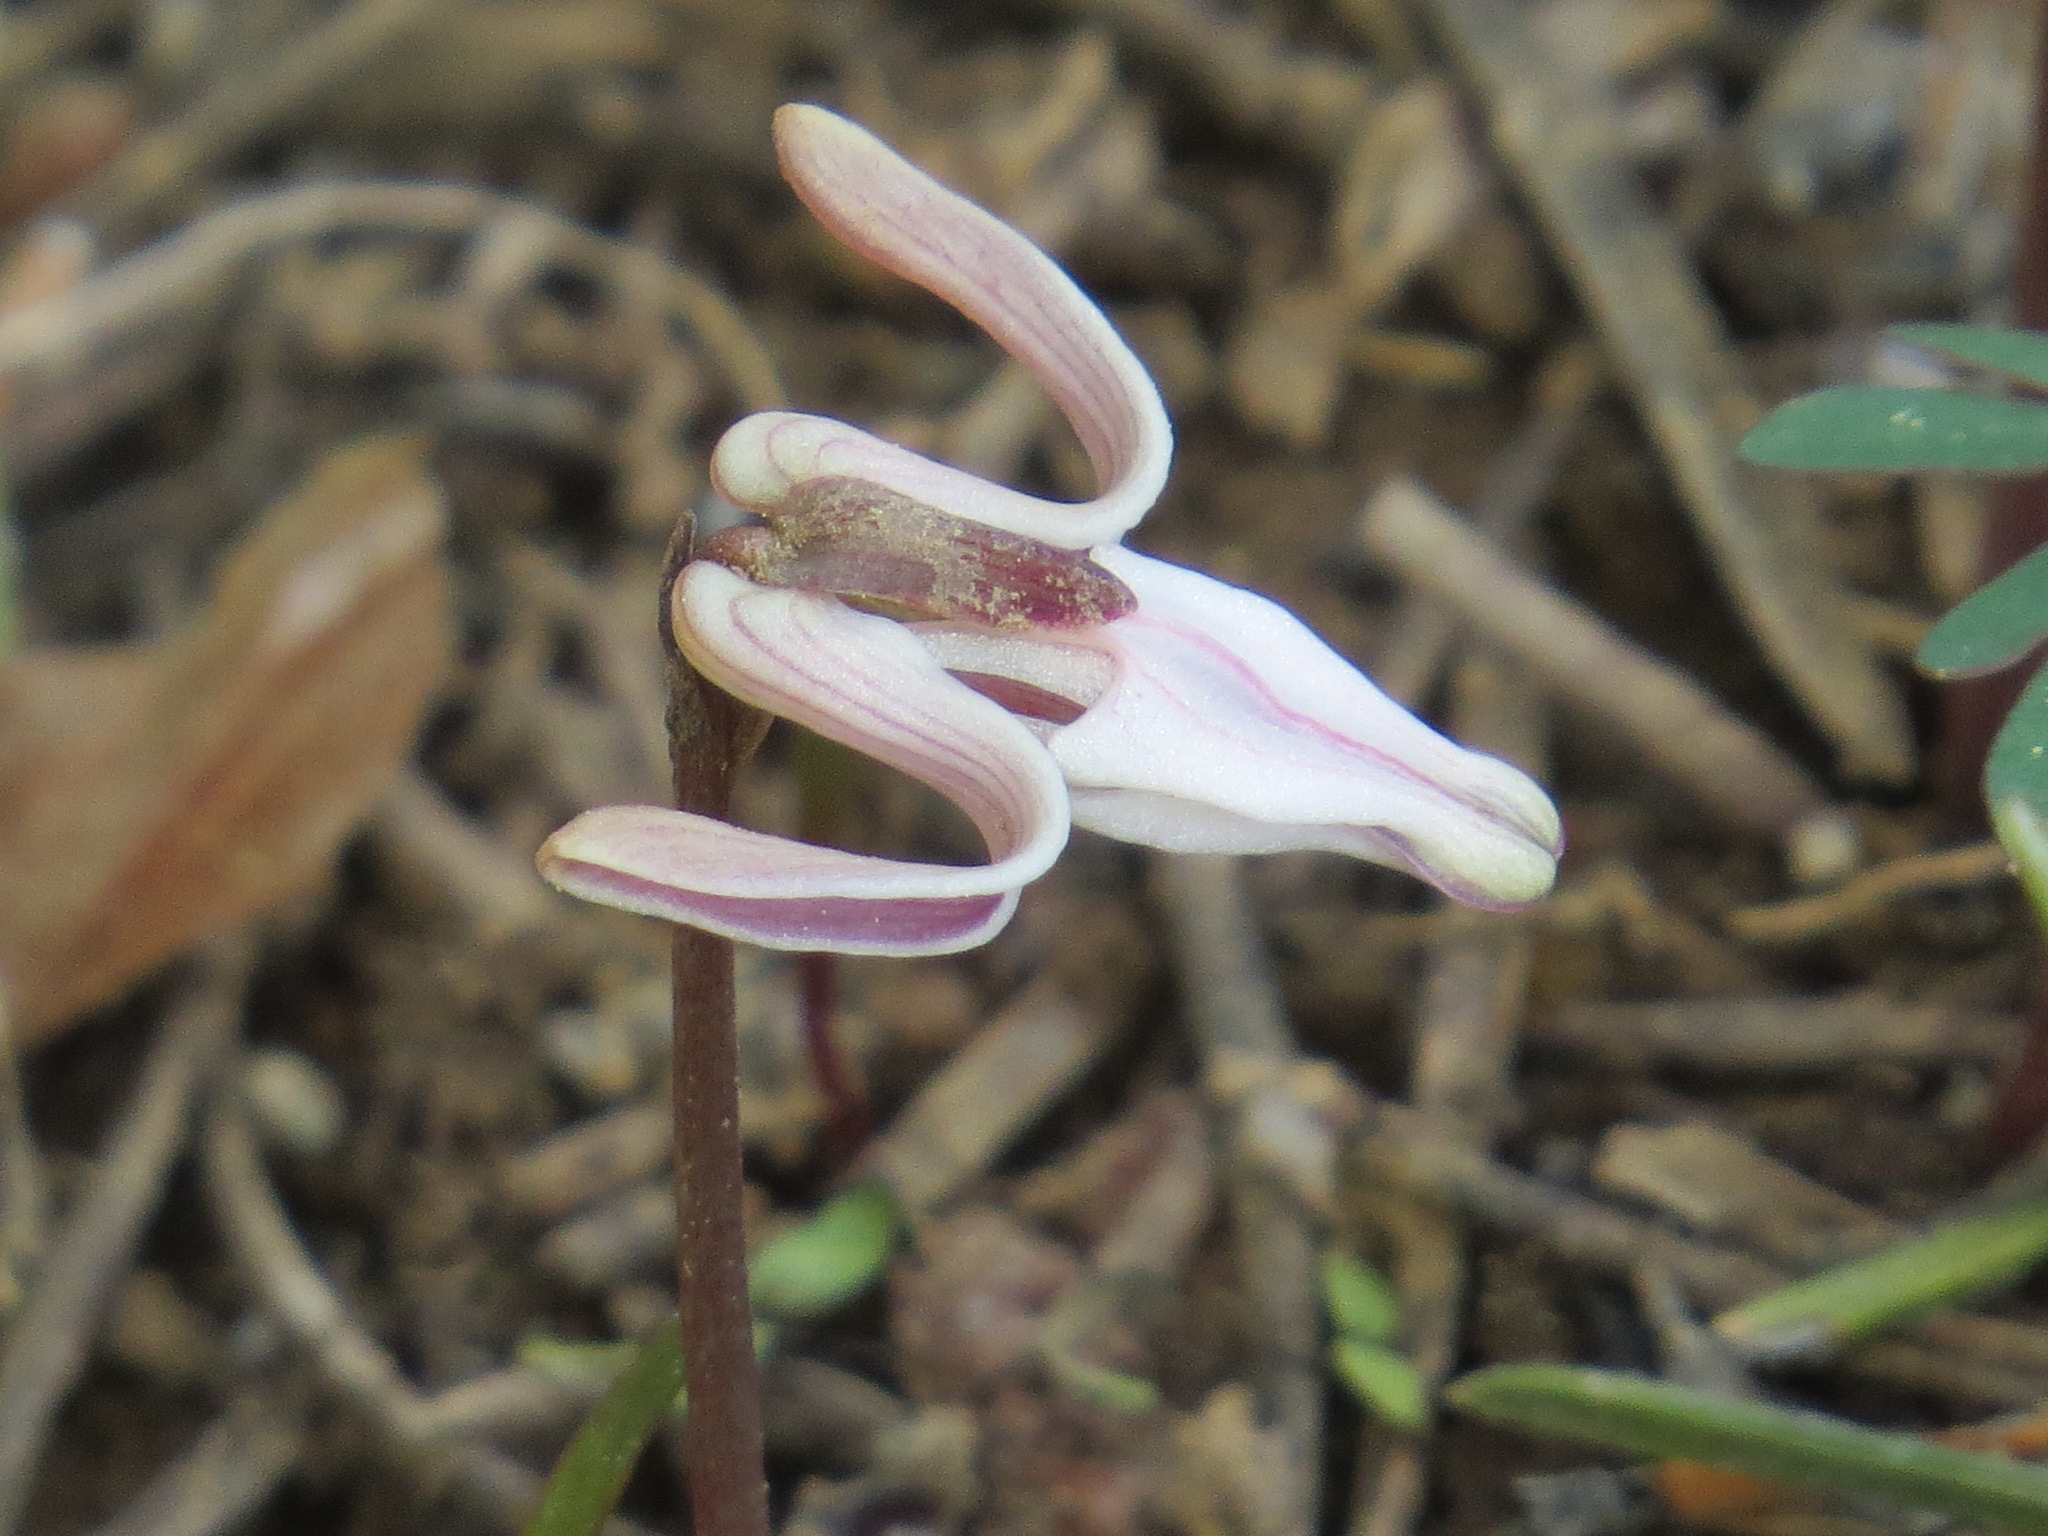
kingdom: Plantae
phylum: Tracheophyta
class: Magnoliopsida
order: Ranunculales
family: Papaveraceae
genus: Dicentra
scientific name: Dicentra uniflora
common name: Steer's-head
